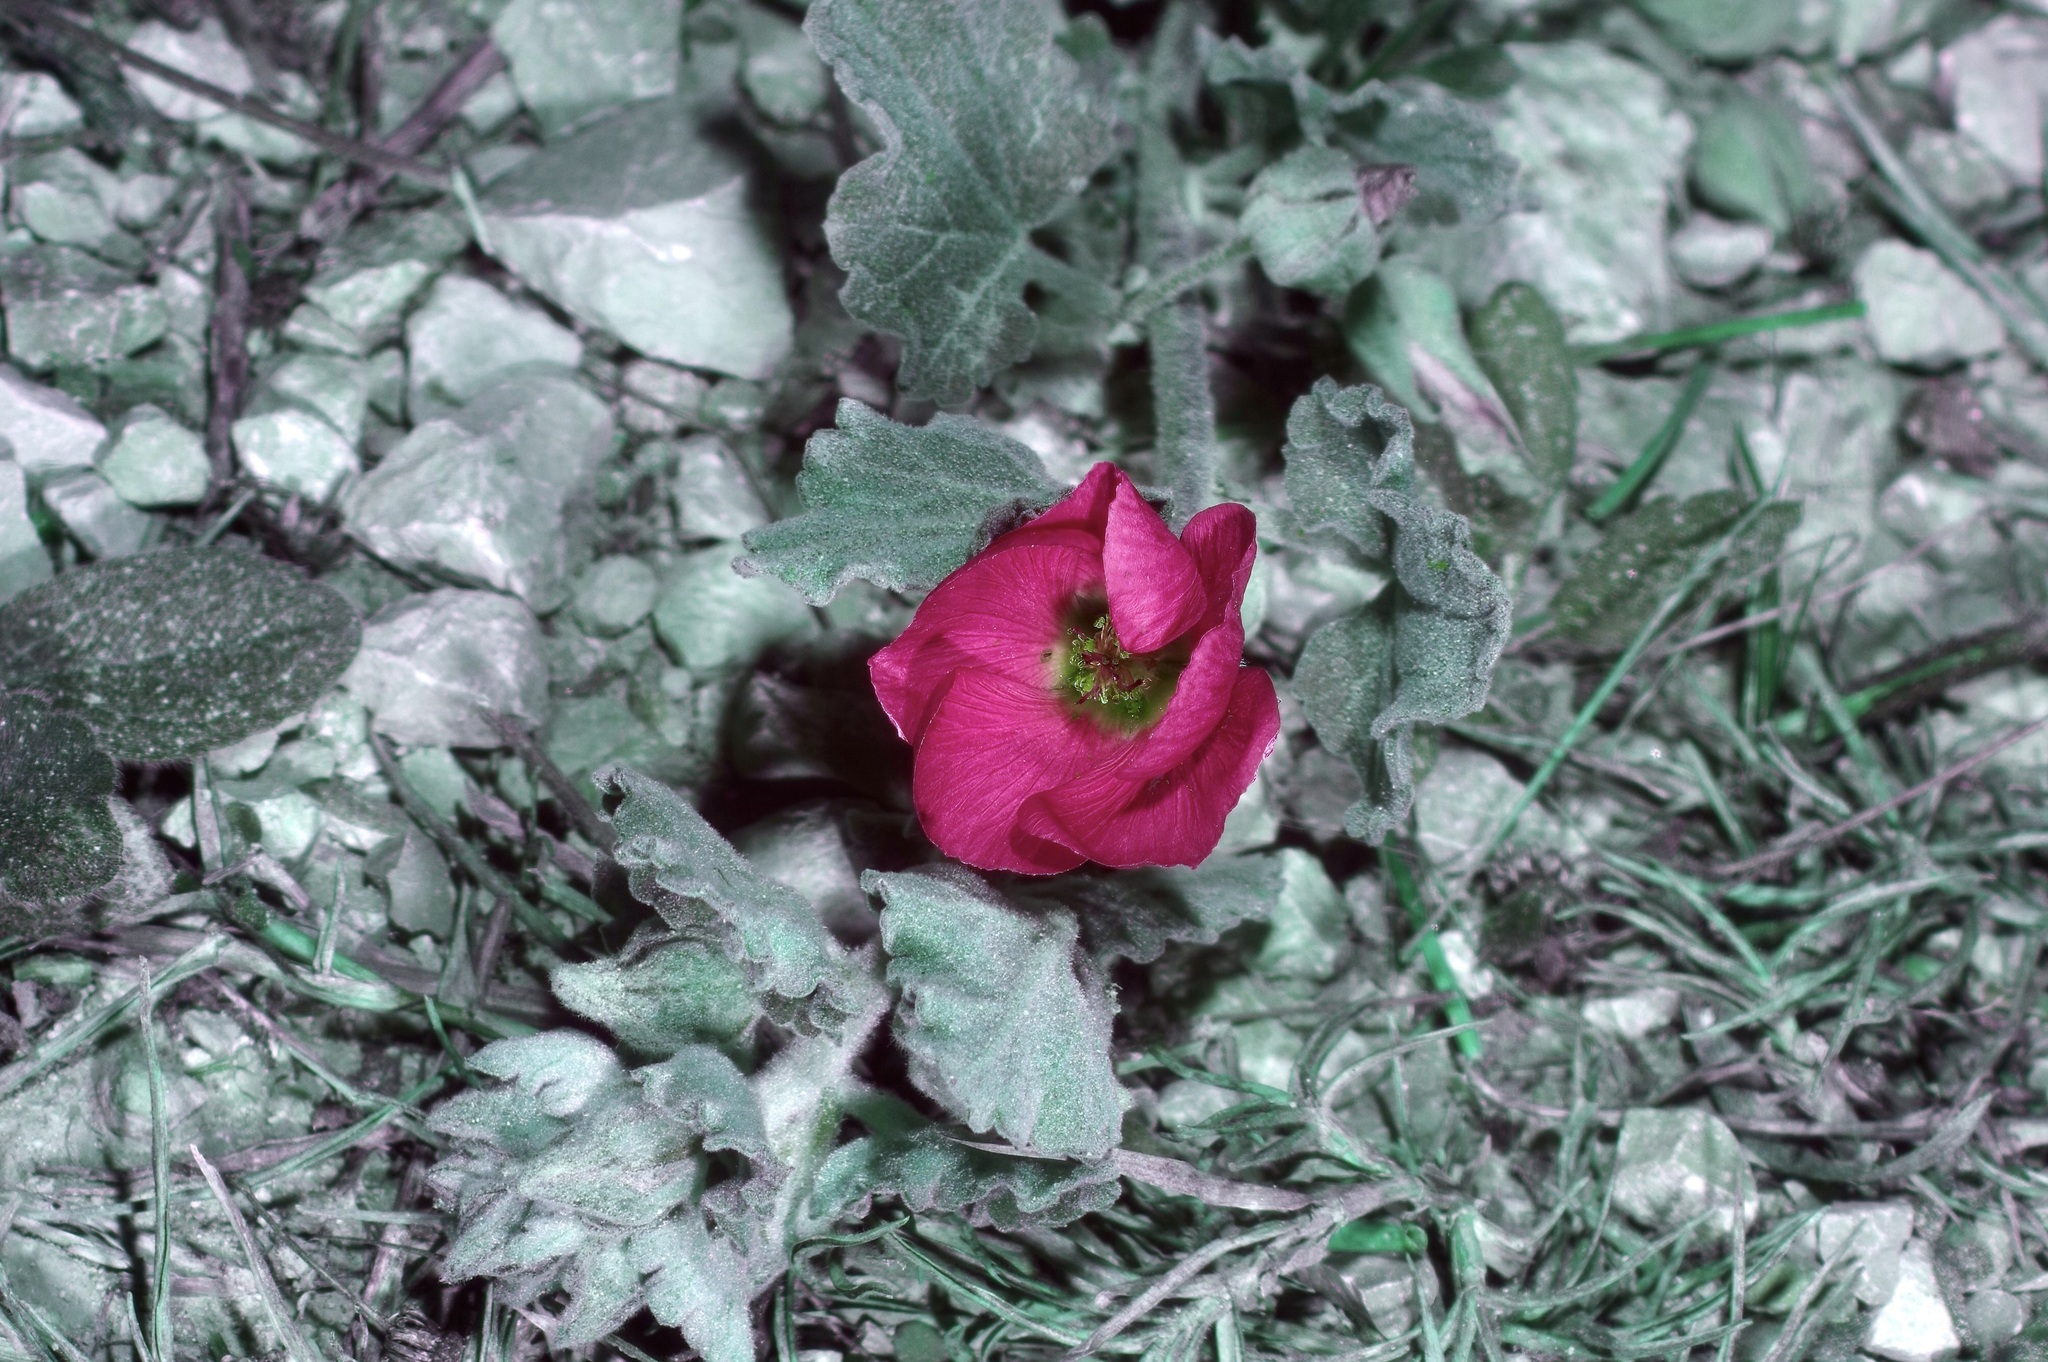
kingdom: Plantae
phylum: Tracheophyta
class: Magnoliopsida
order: Malvales
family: Malvaceae
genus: Sphaeralcea
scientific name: Sphaeralcea lindheimeri
